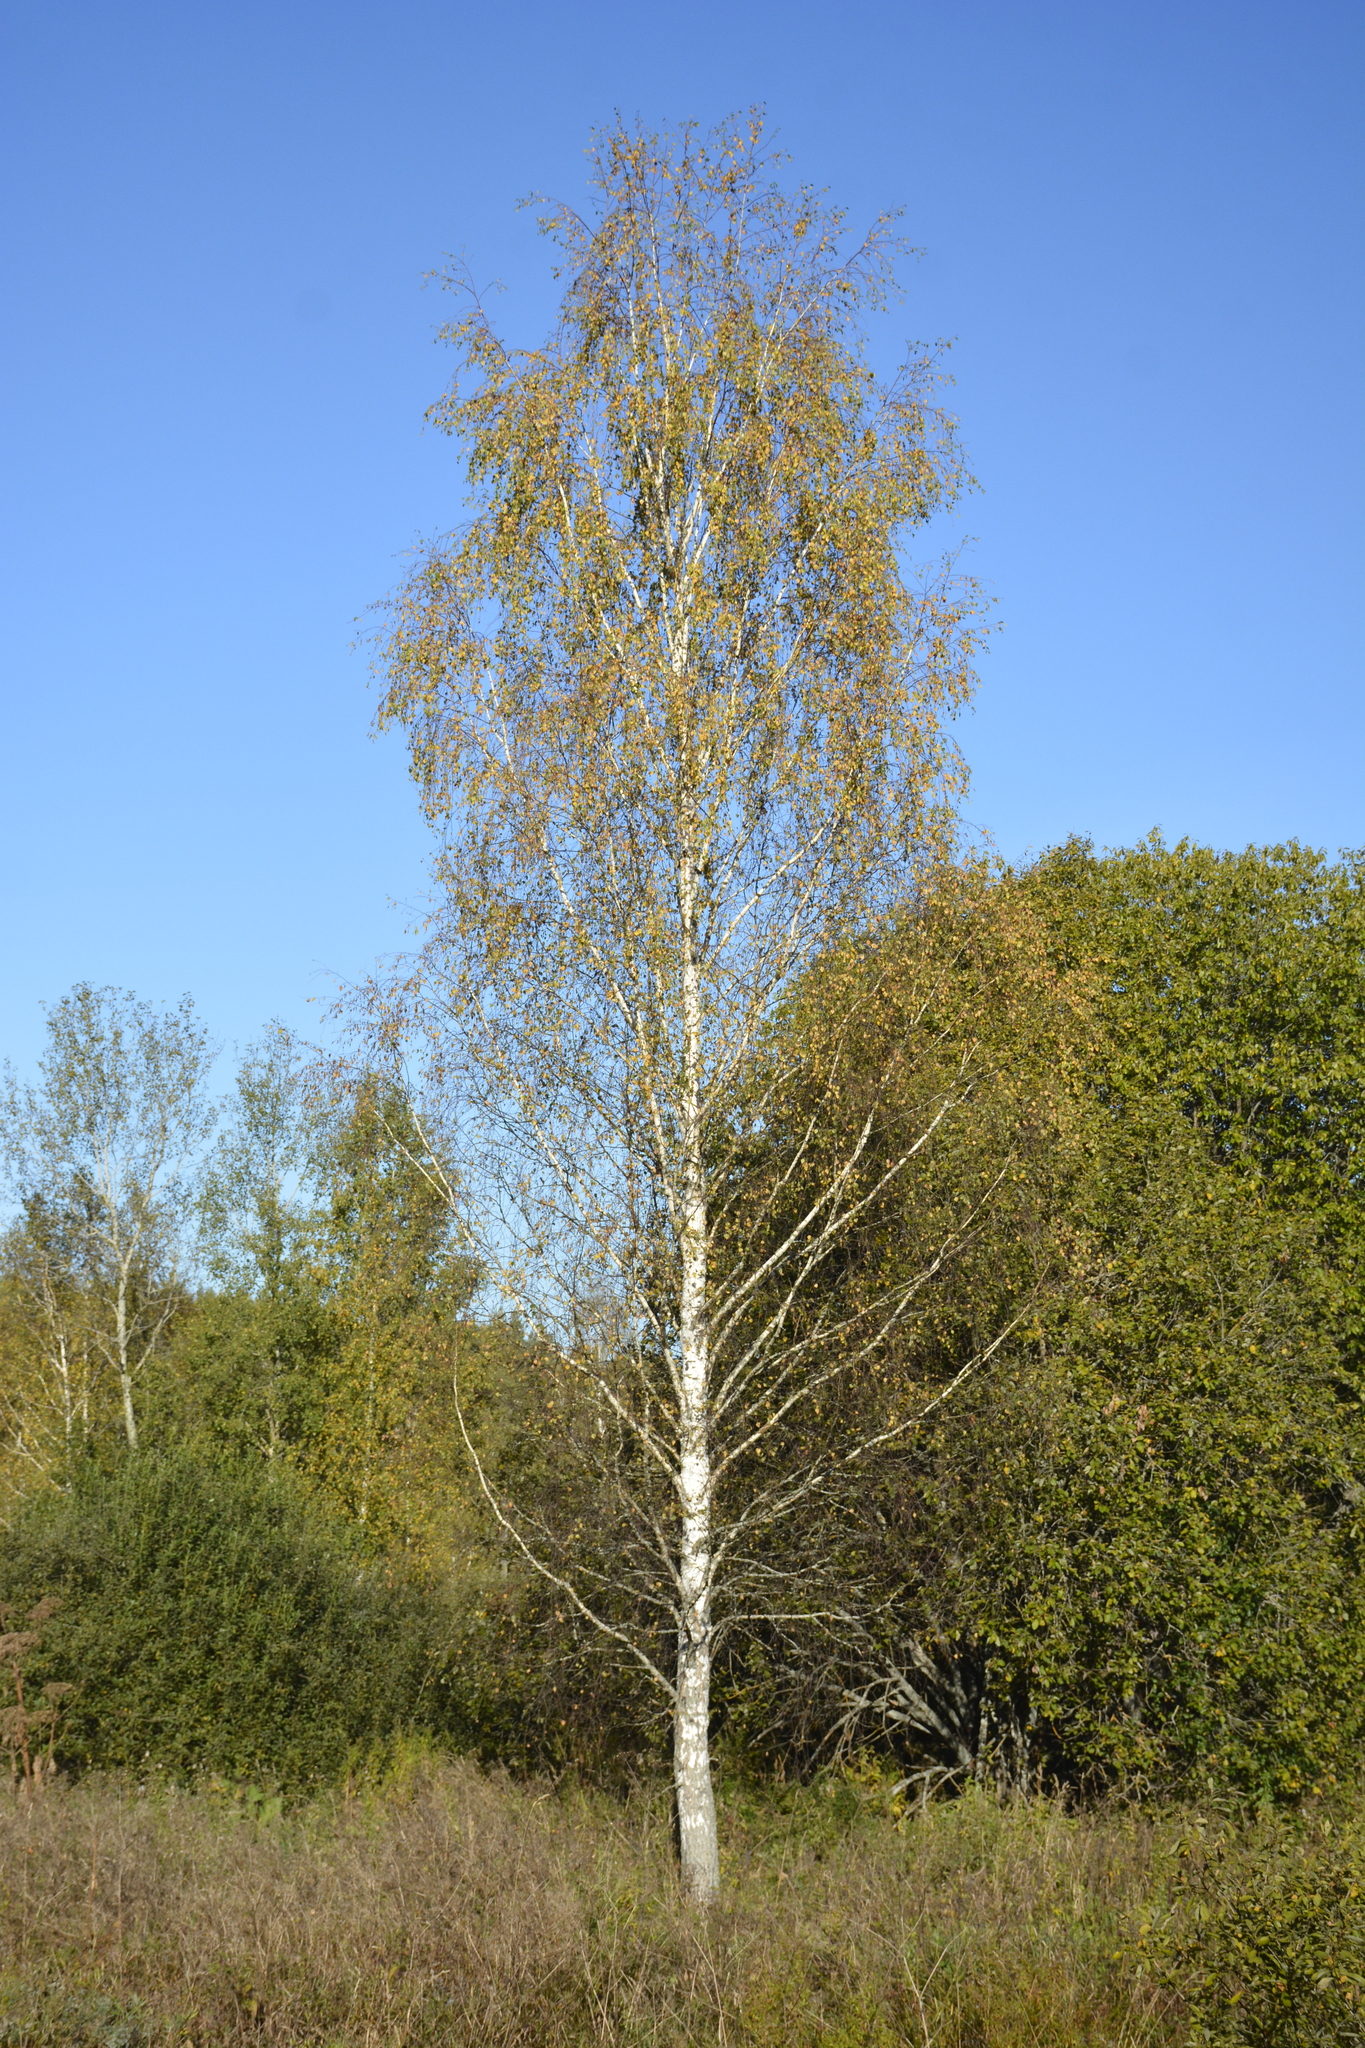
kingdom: Plantae
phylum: Tracheophyta
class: Magnoliopsida
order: Fagales
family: Betulaceae
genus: Betula
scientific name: Betula pendula
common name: Silver birch
